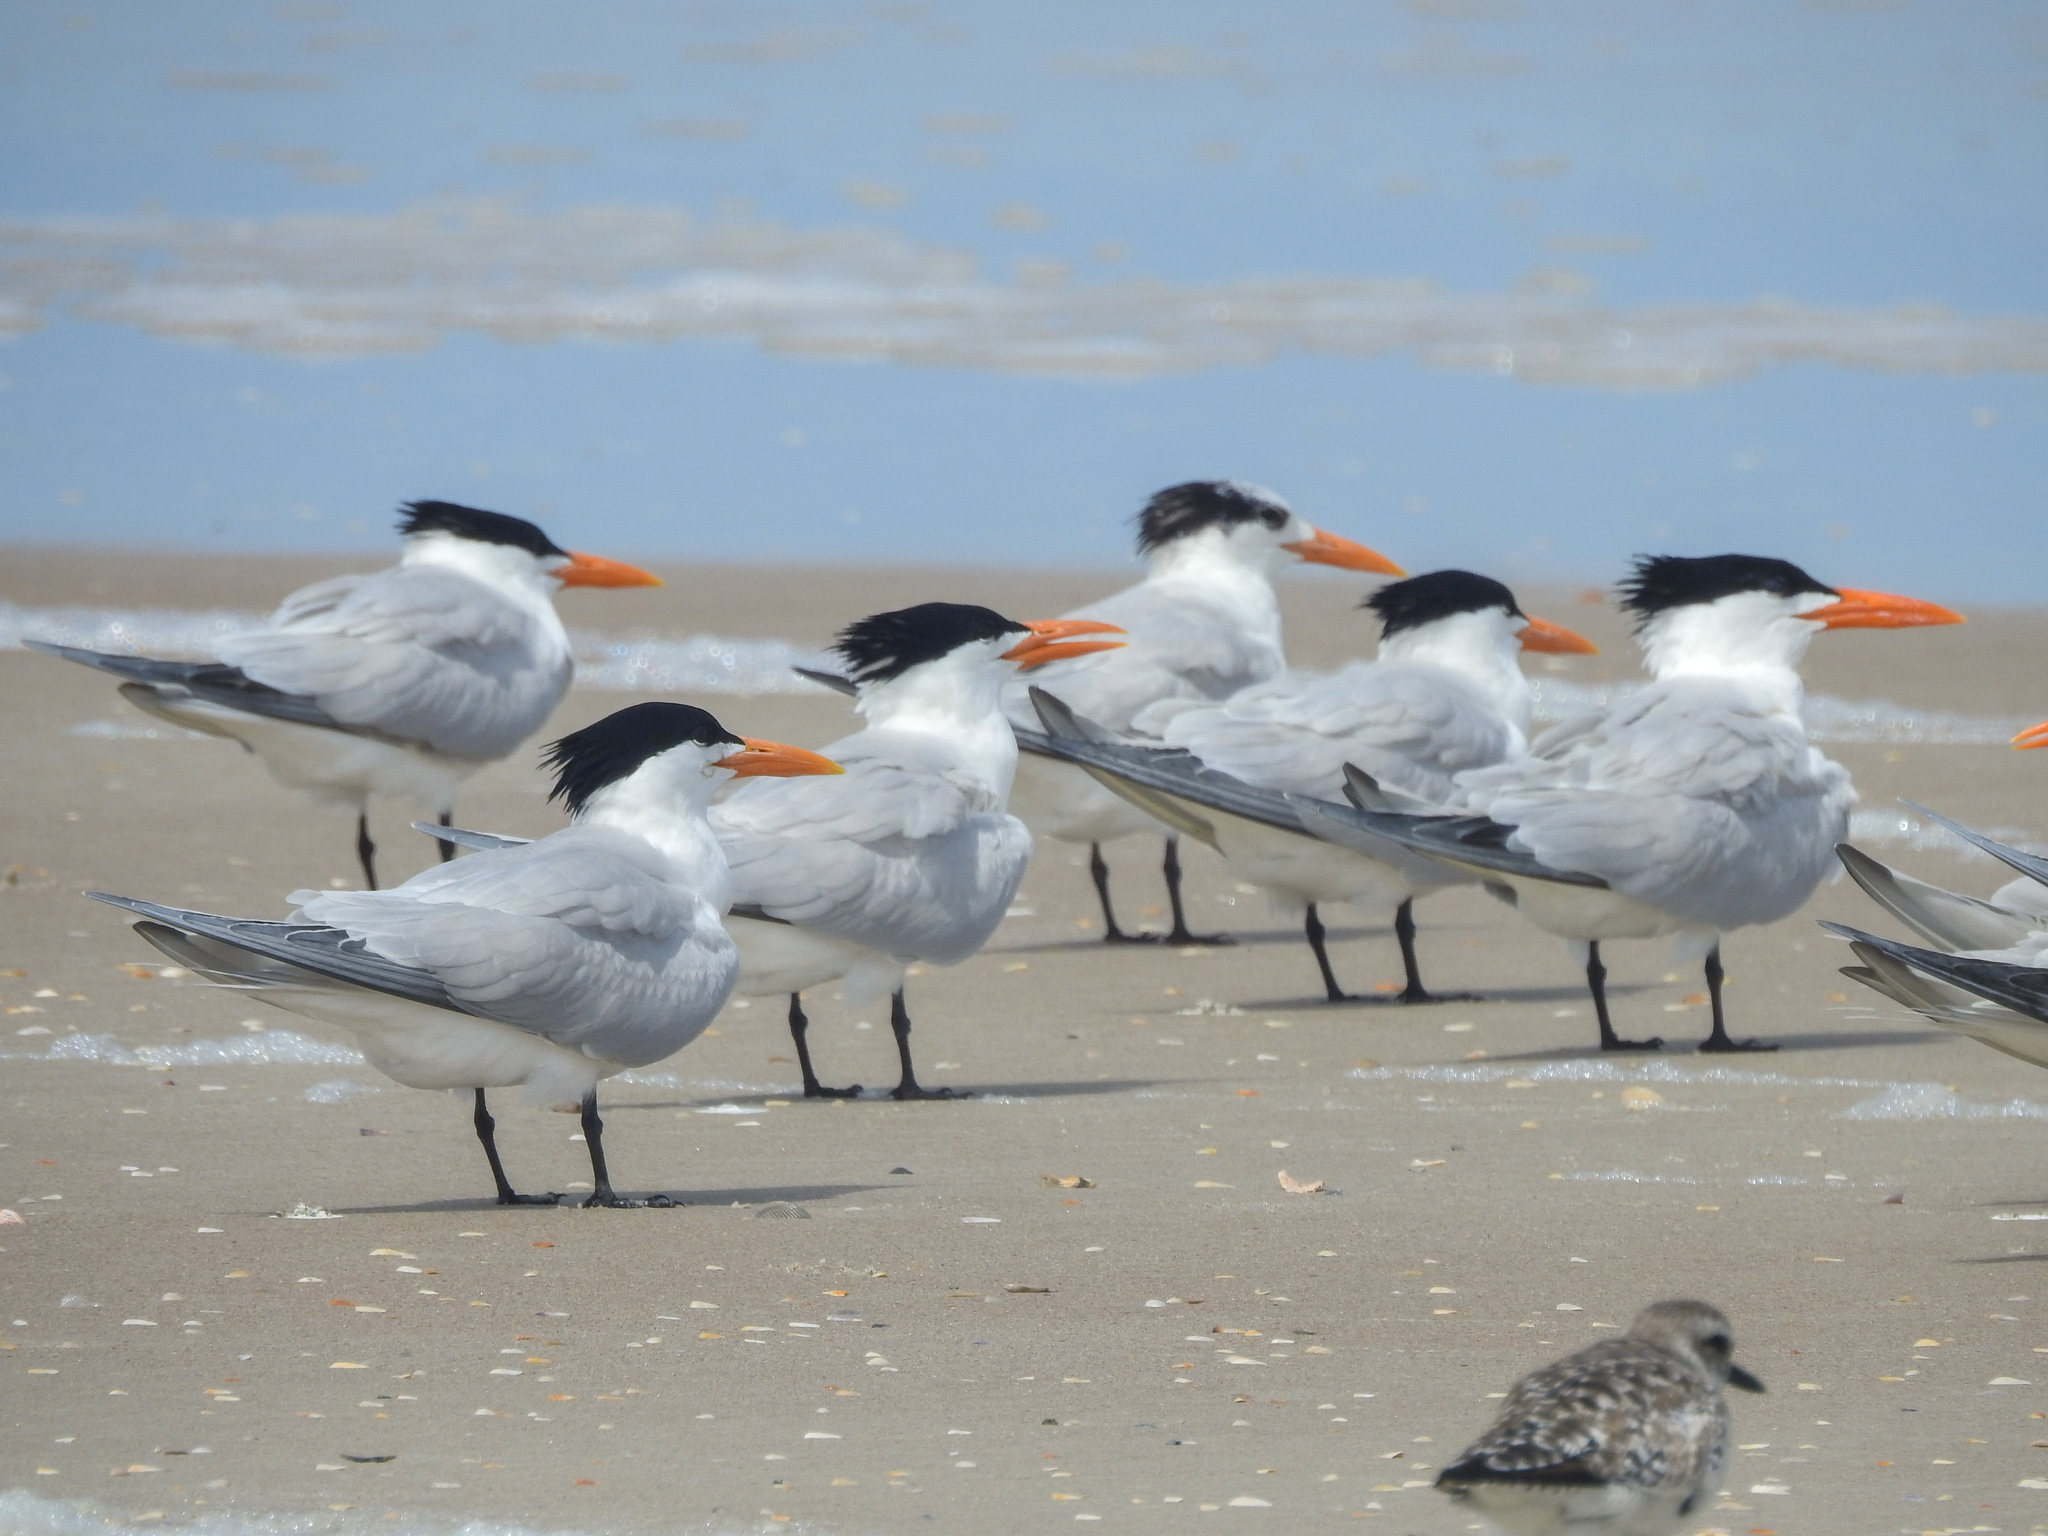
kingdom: Animalia
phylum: Chordata
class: Aves
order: Charadriiformes
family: Laridae
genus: Thalasseus
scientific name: Thalasseus maximus
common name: Royal tern
